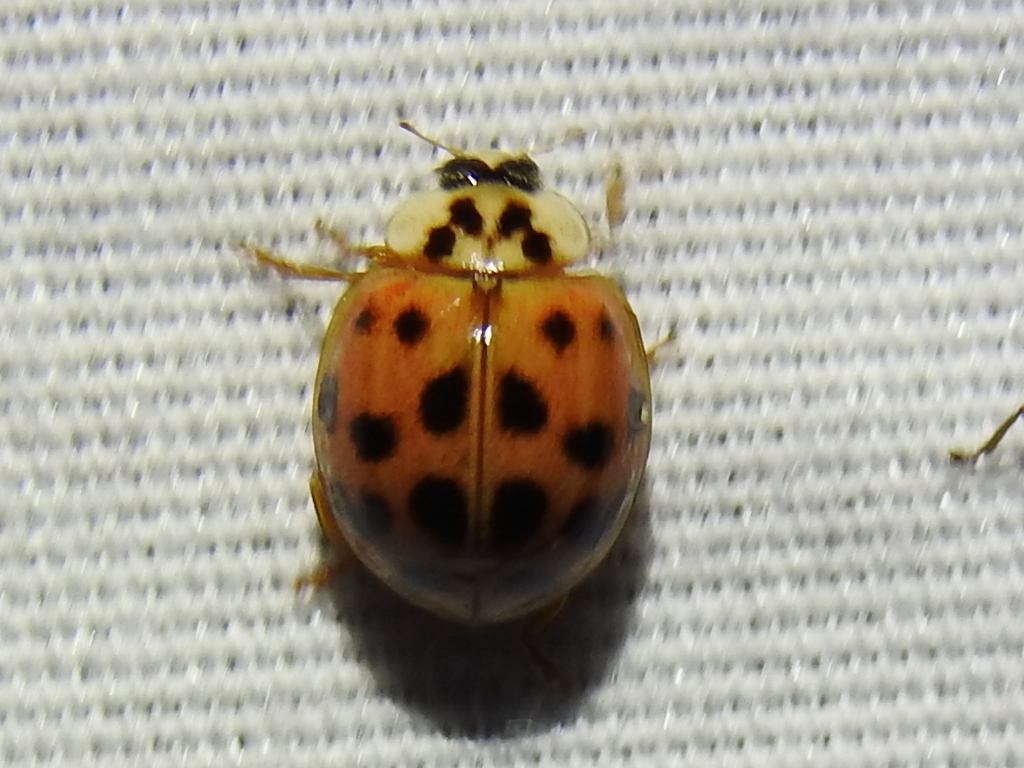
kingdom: Animalia
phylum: Arthropoda
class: Insecta
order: Coleoptera
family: Coccinellidae
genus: Harmonia
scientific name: Harmonia axyridis
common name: Harlequin ladybird
